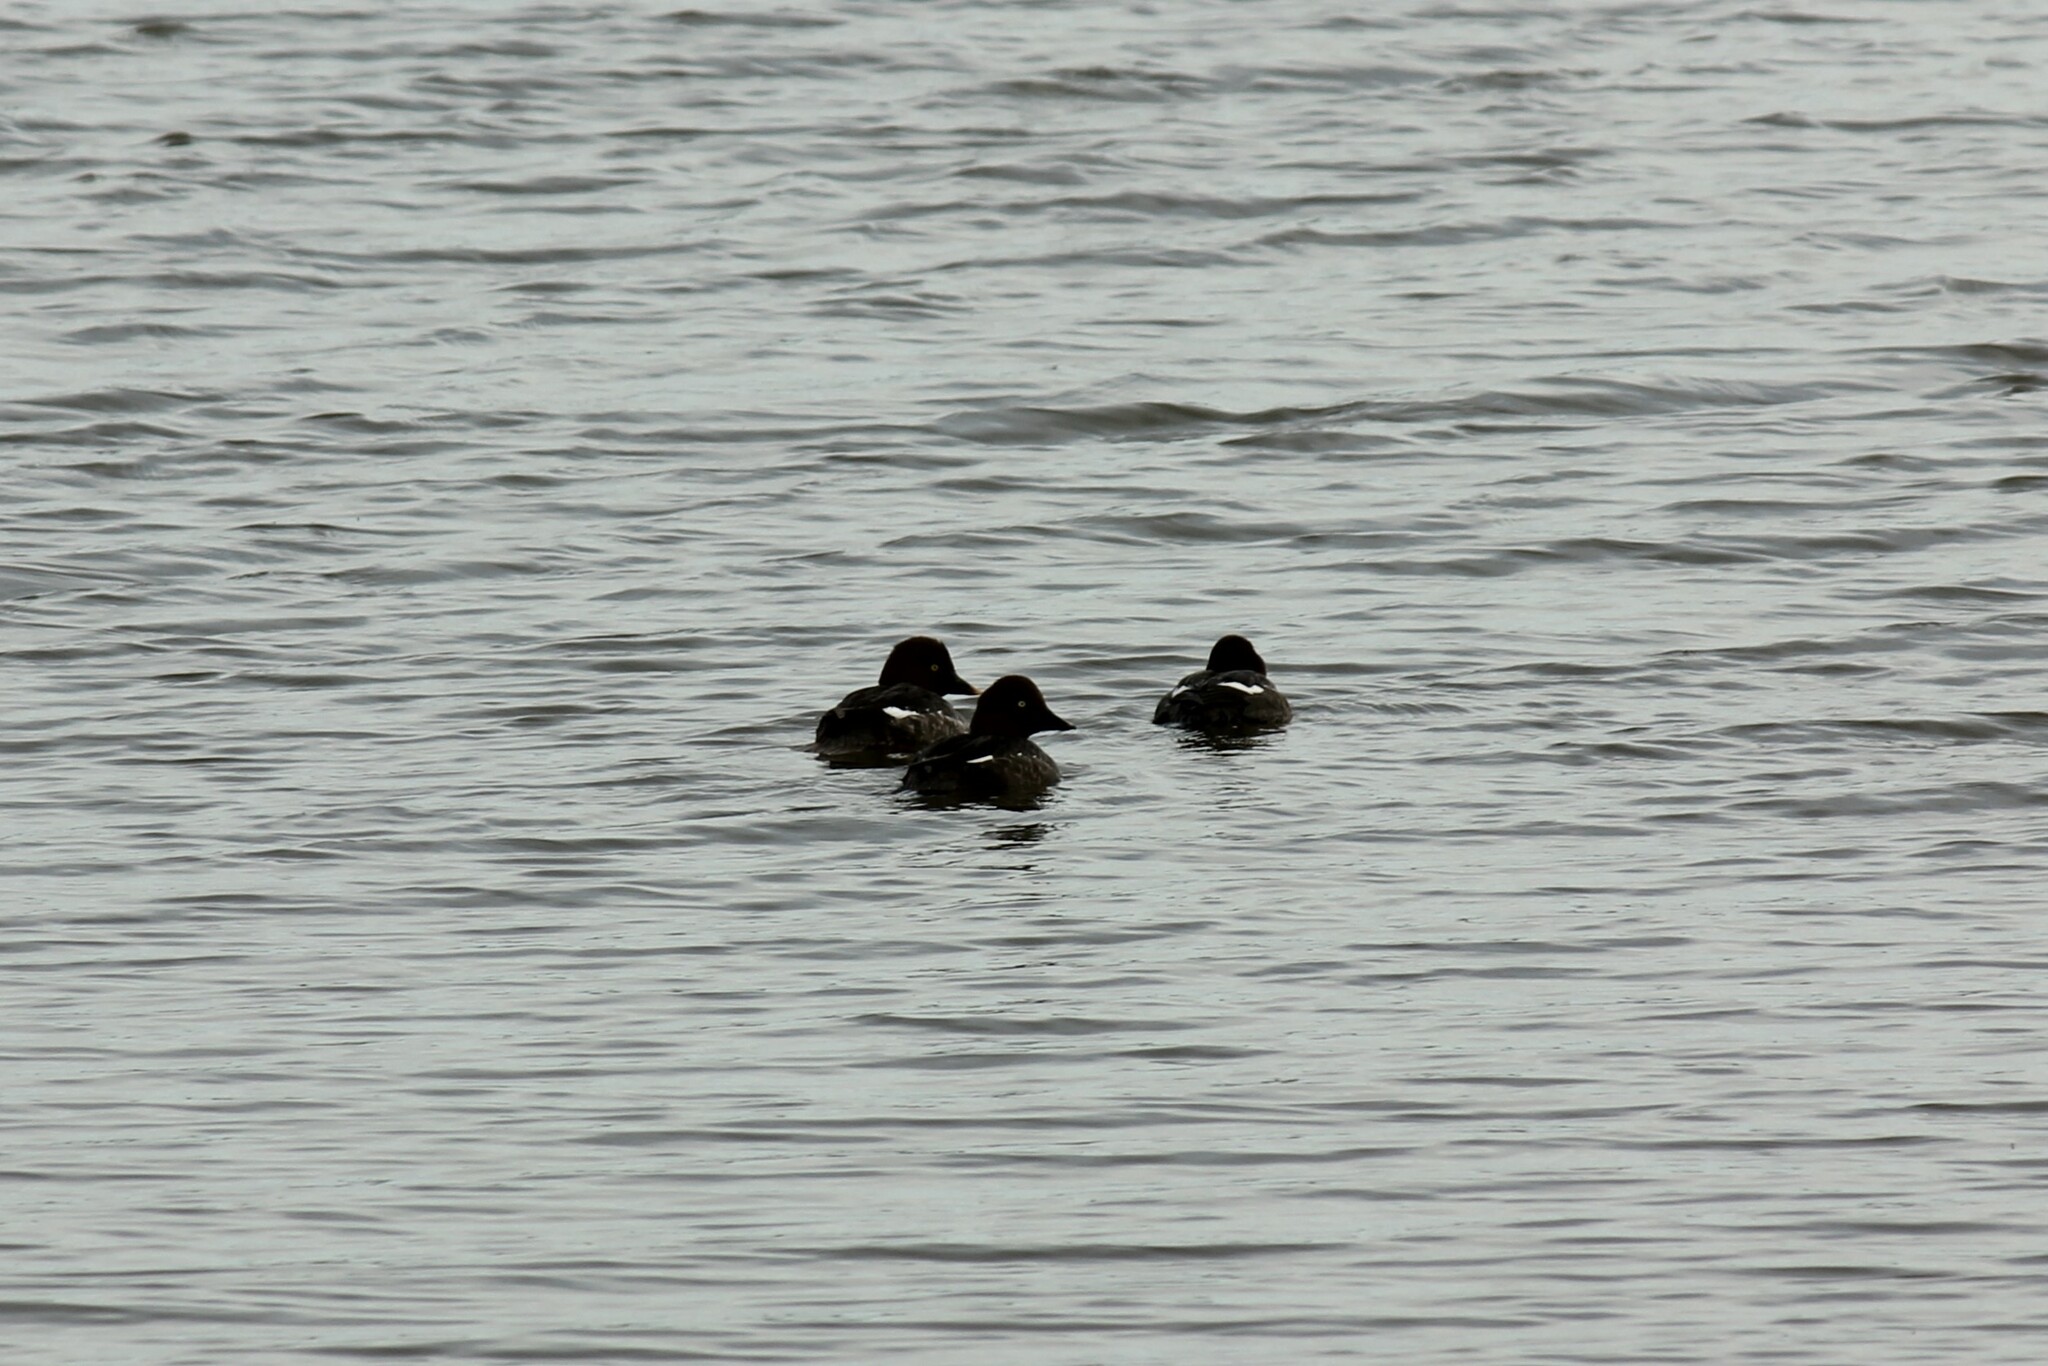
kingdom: Animalia
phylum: Chordata
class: Aves
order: Anseriformes
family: Anatidae
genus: Bucephala
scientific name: Bucephala clangula
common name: Common goldeneye
